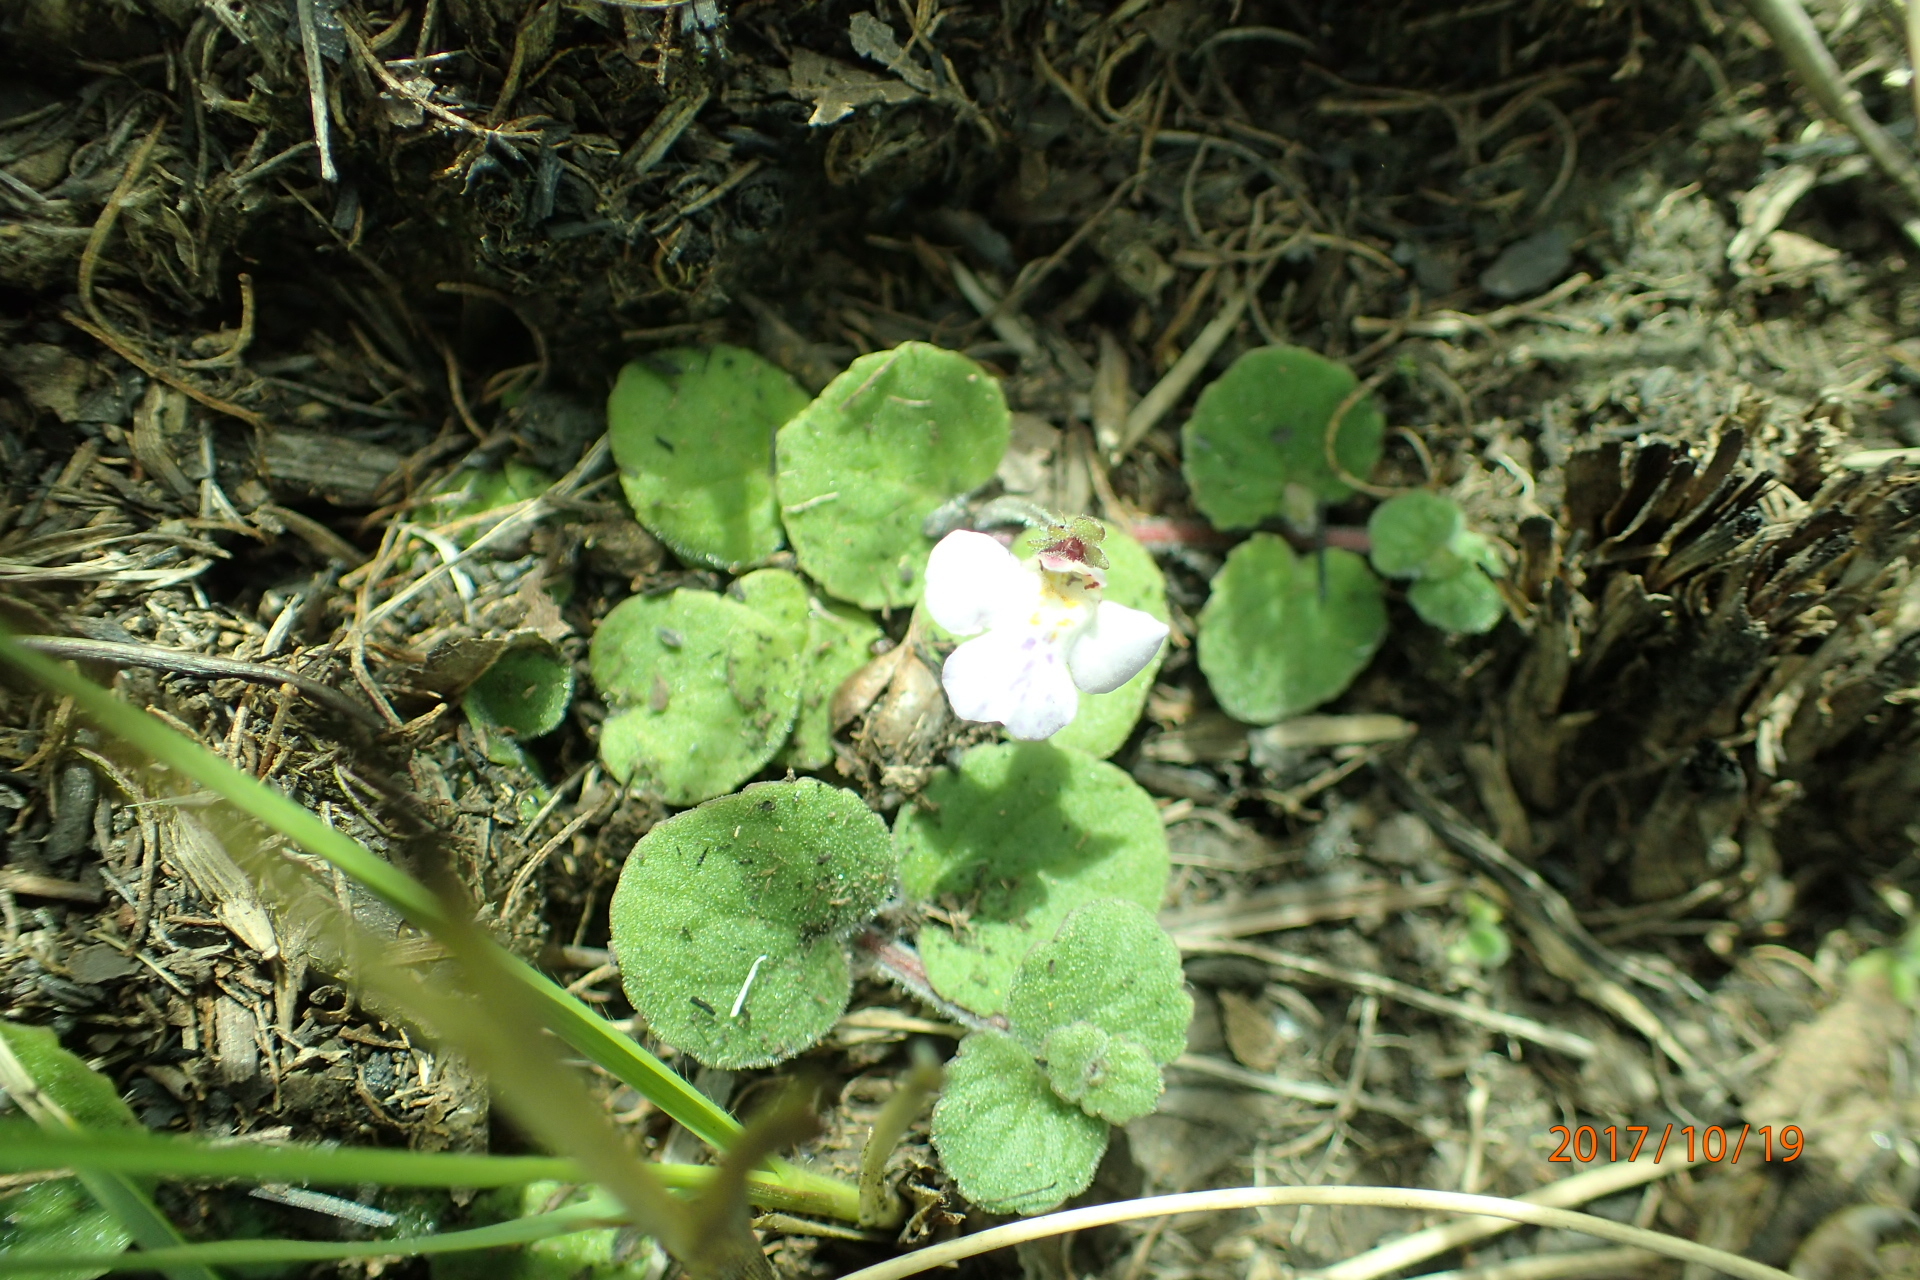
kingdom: Plantae
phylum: Tracheophyta
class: Magnoliopsida
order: Lamiales
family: Scrophulariaceae
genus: Diclis
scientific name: Diclis rotundifolia
